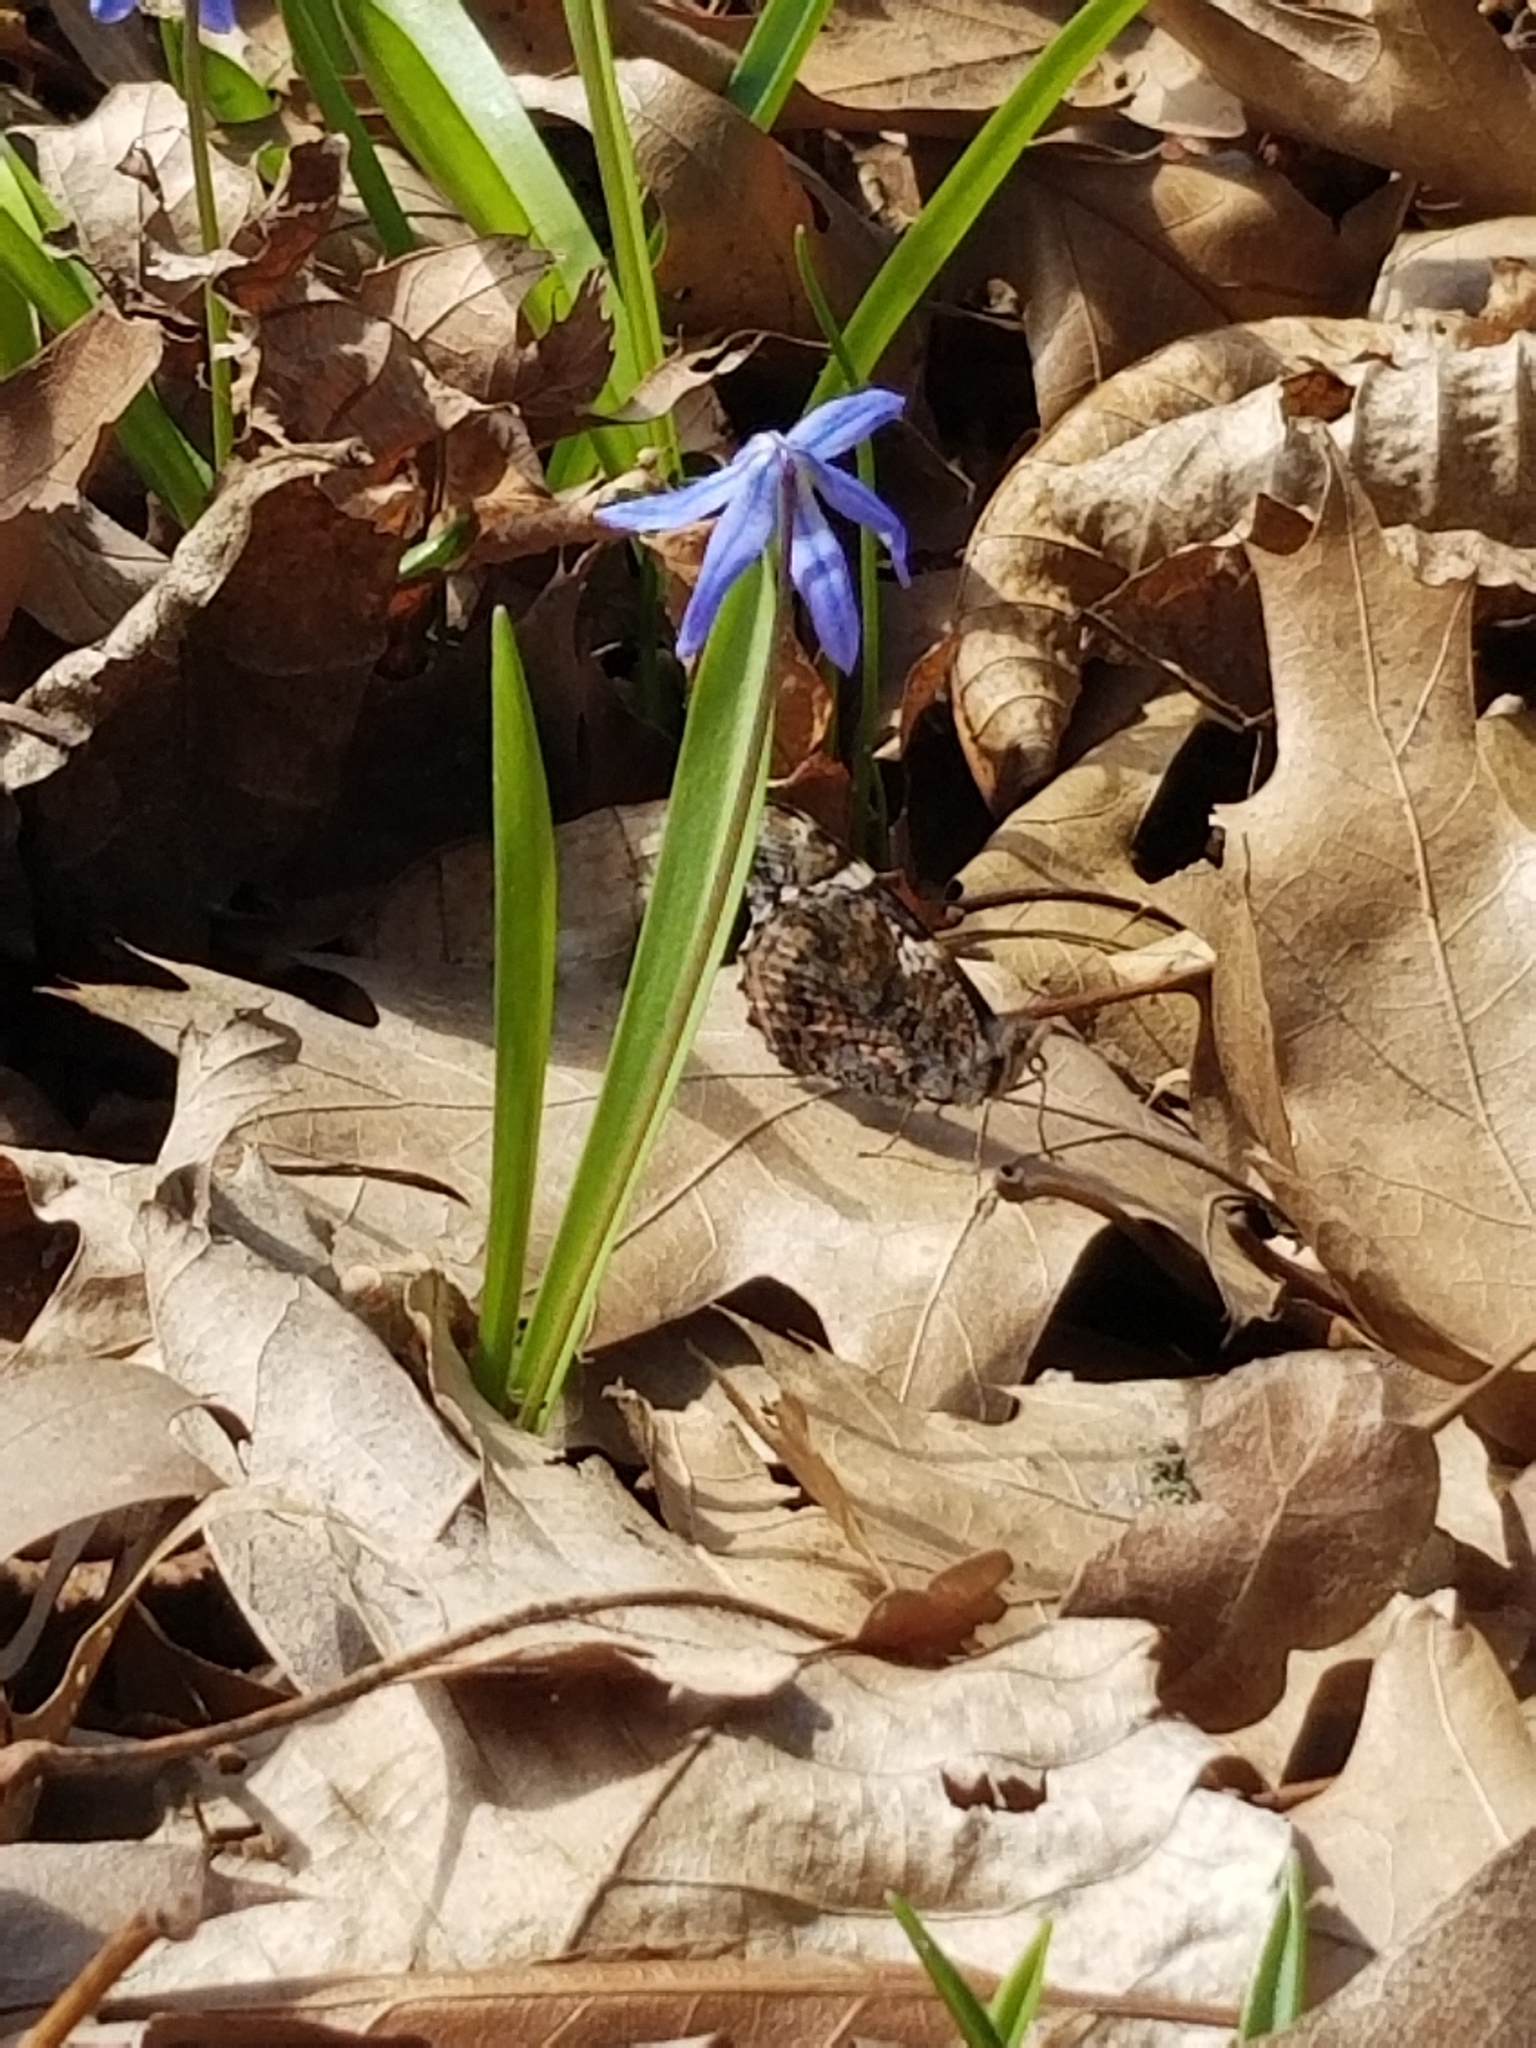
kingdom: Animalia
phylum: Arthropoda
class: Insecta
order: Lepidoptera
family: Nymphalidae
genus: Vanessa
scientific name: Vanessa atalanta
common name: Red admiral
